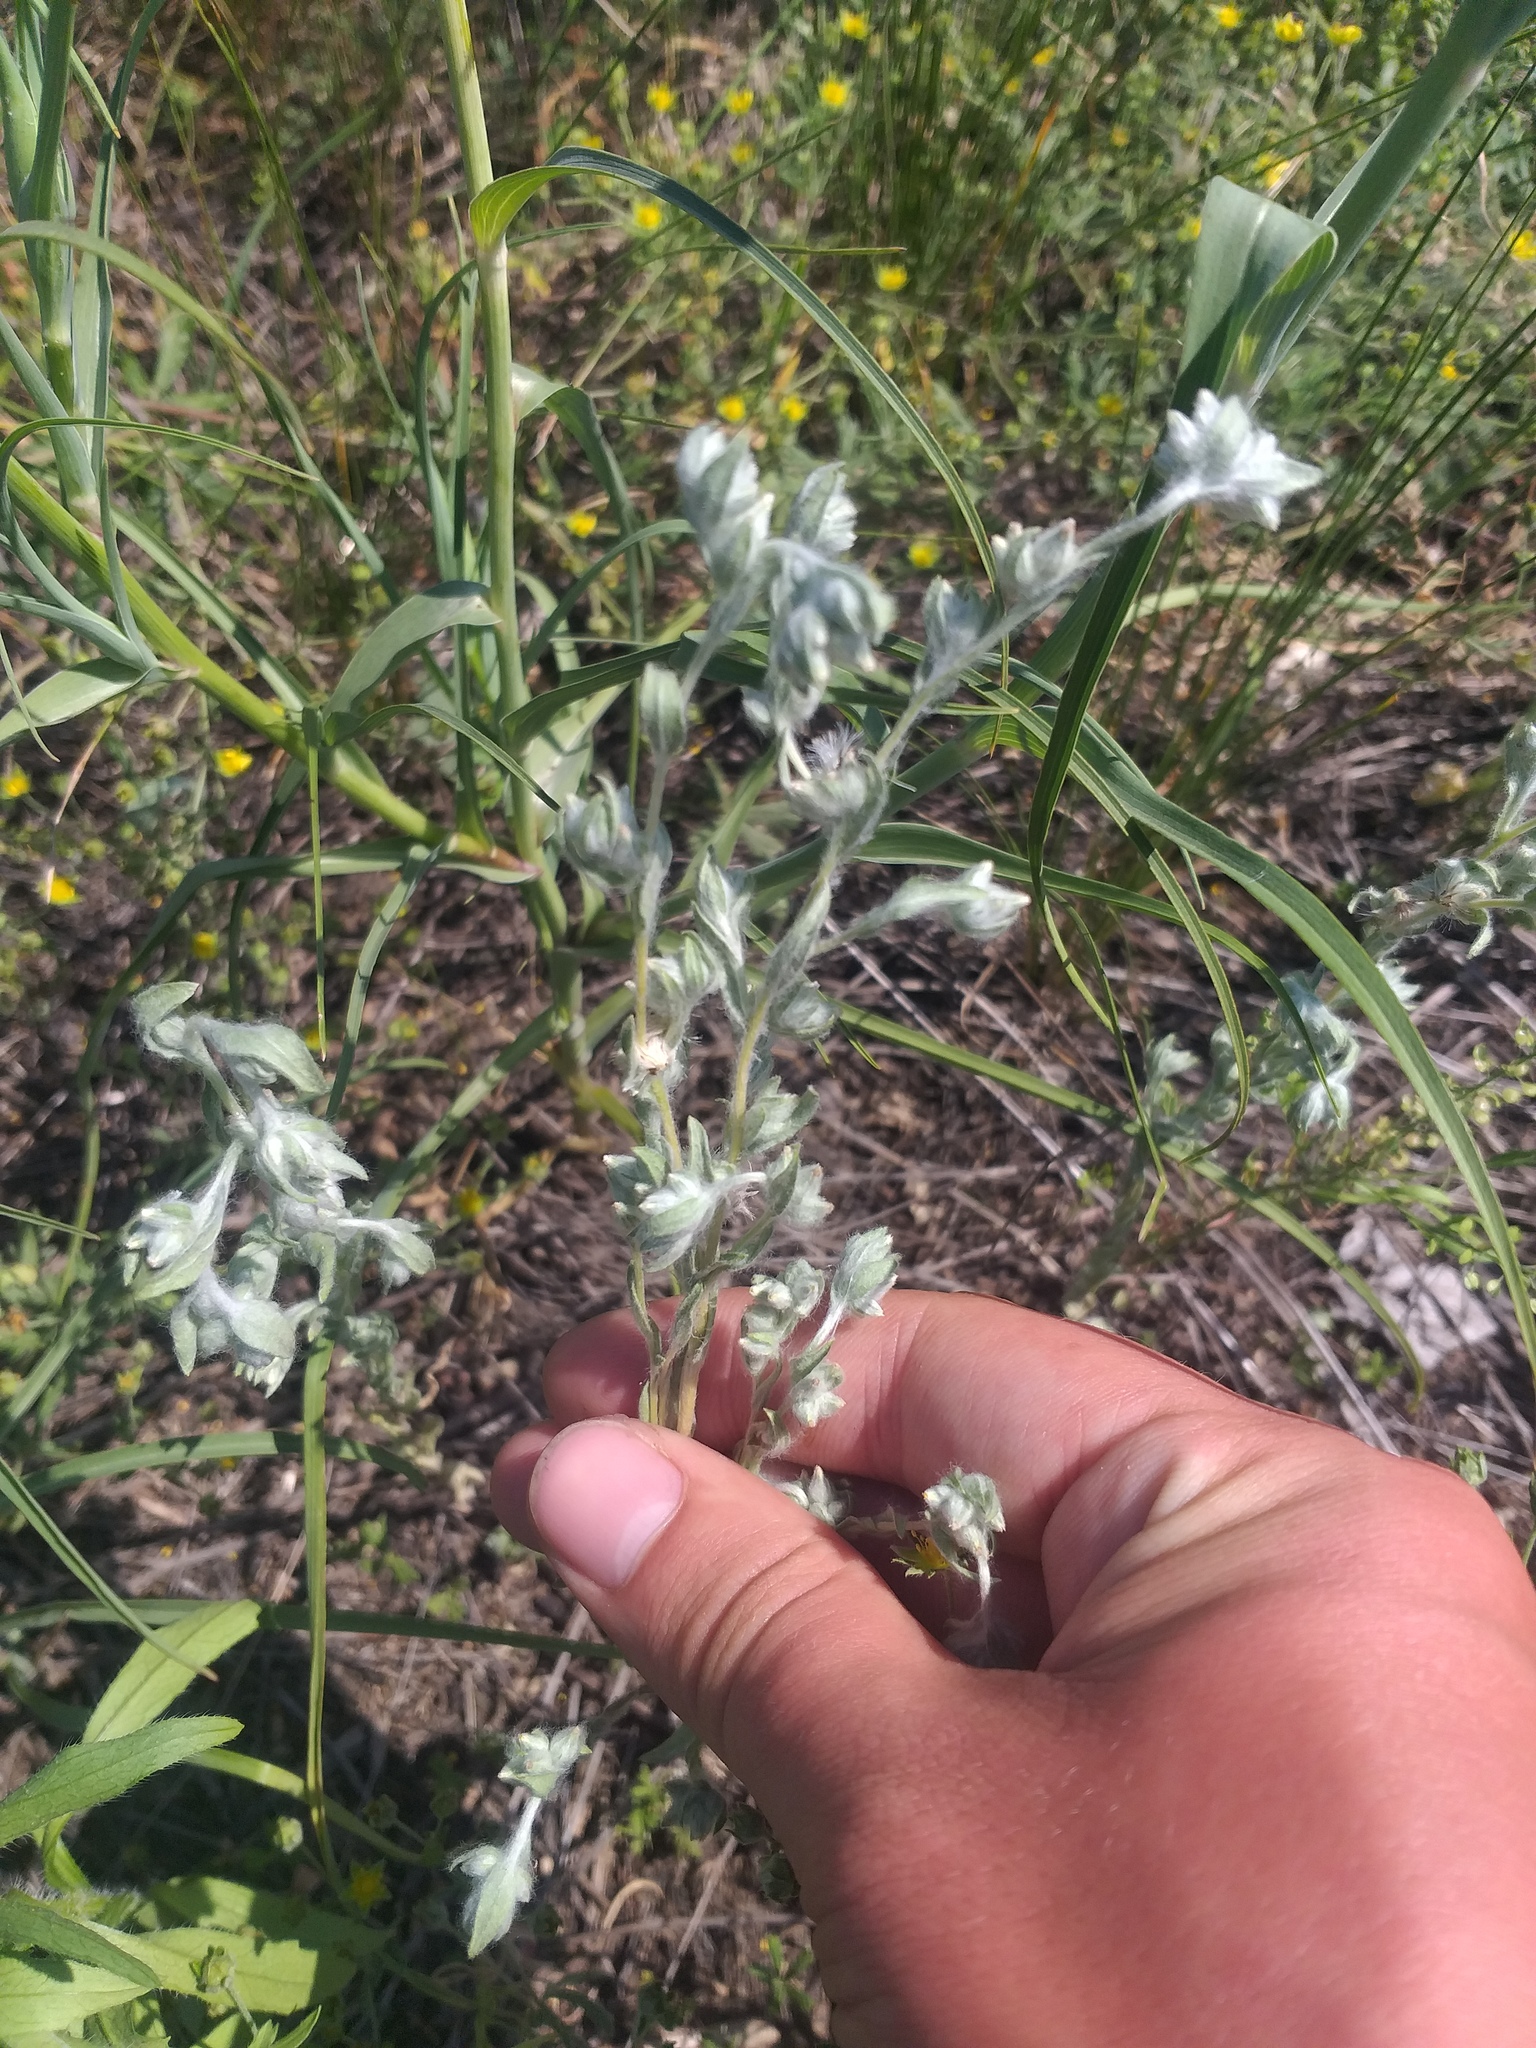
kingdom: Plantae
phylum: Tracheophyta
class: Magnoliopsida
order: Asterales
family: Asteraceae
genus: Filago
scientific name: Filago arvensis
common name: Field cudweed
